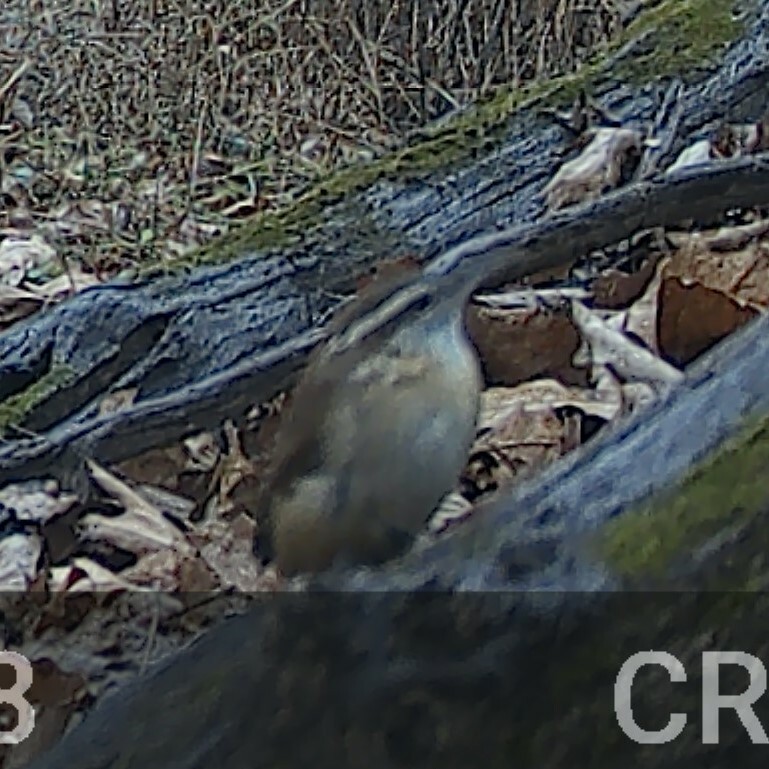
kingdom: Animalia
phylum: Chordata
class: Aves
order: Passeriformes
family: Troglodytidae
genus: Thryothorus
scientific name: Thryothorus ludovicianus
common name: Carolina wren
